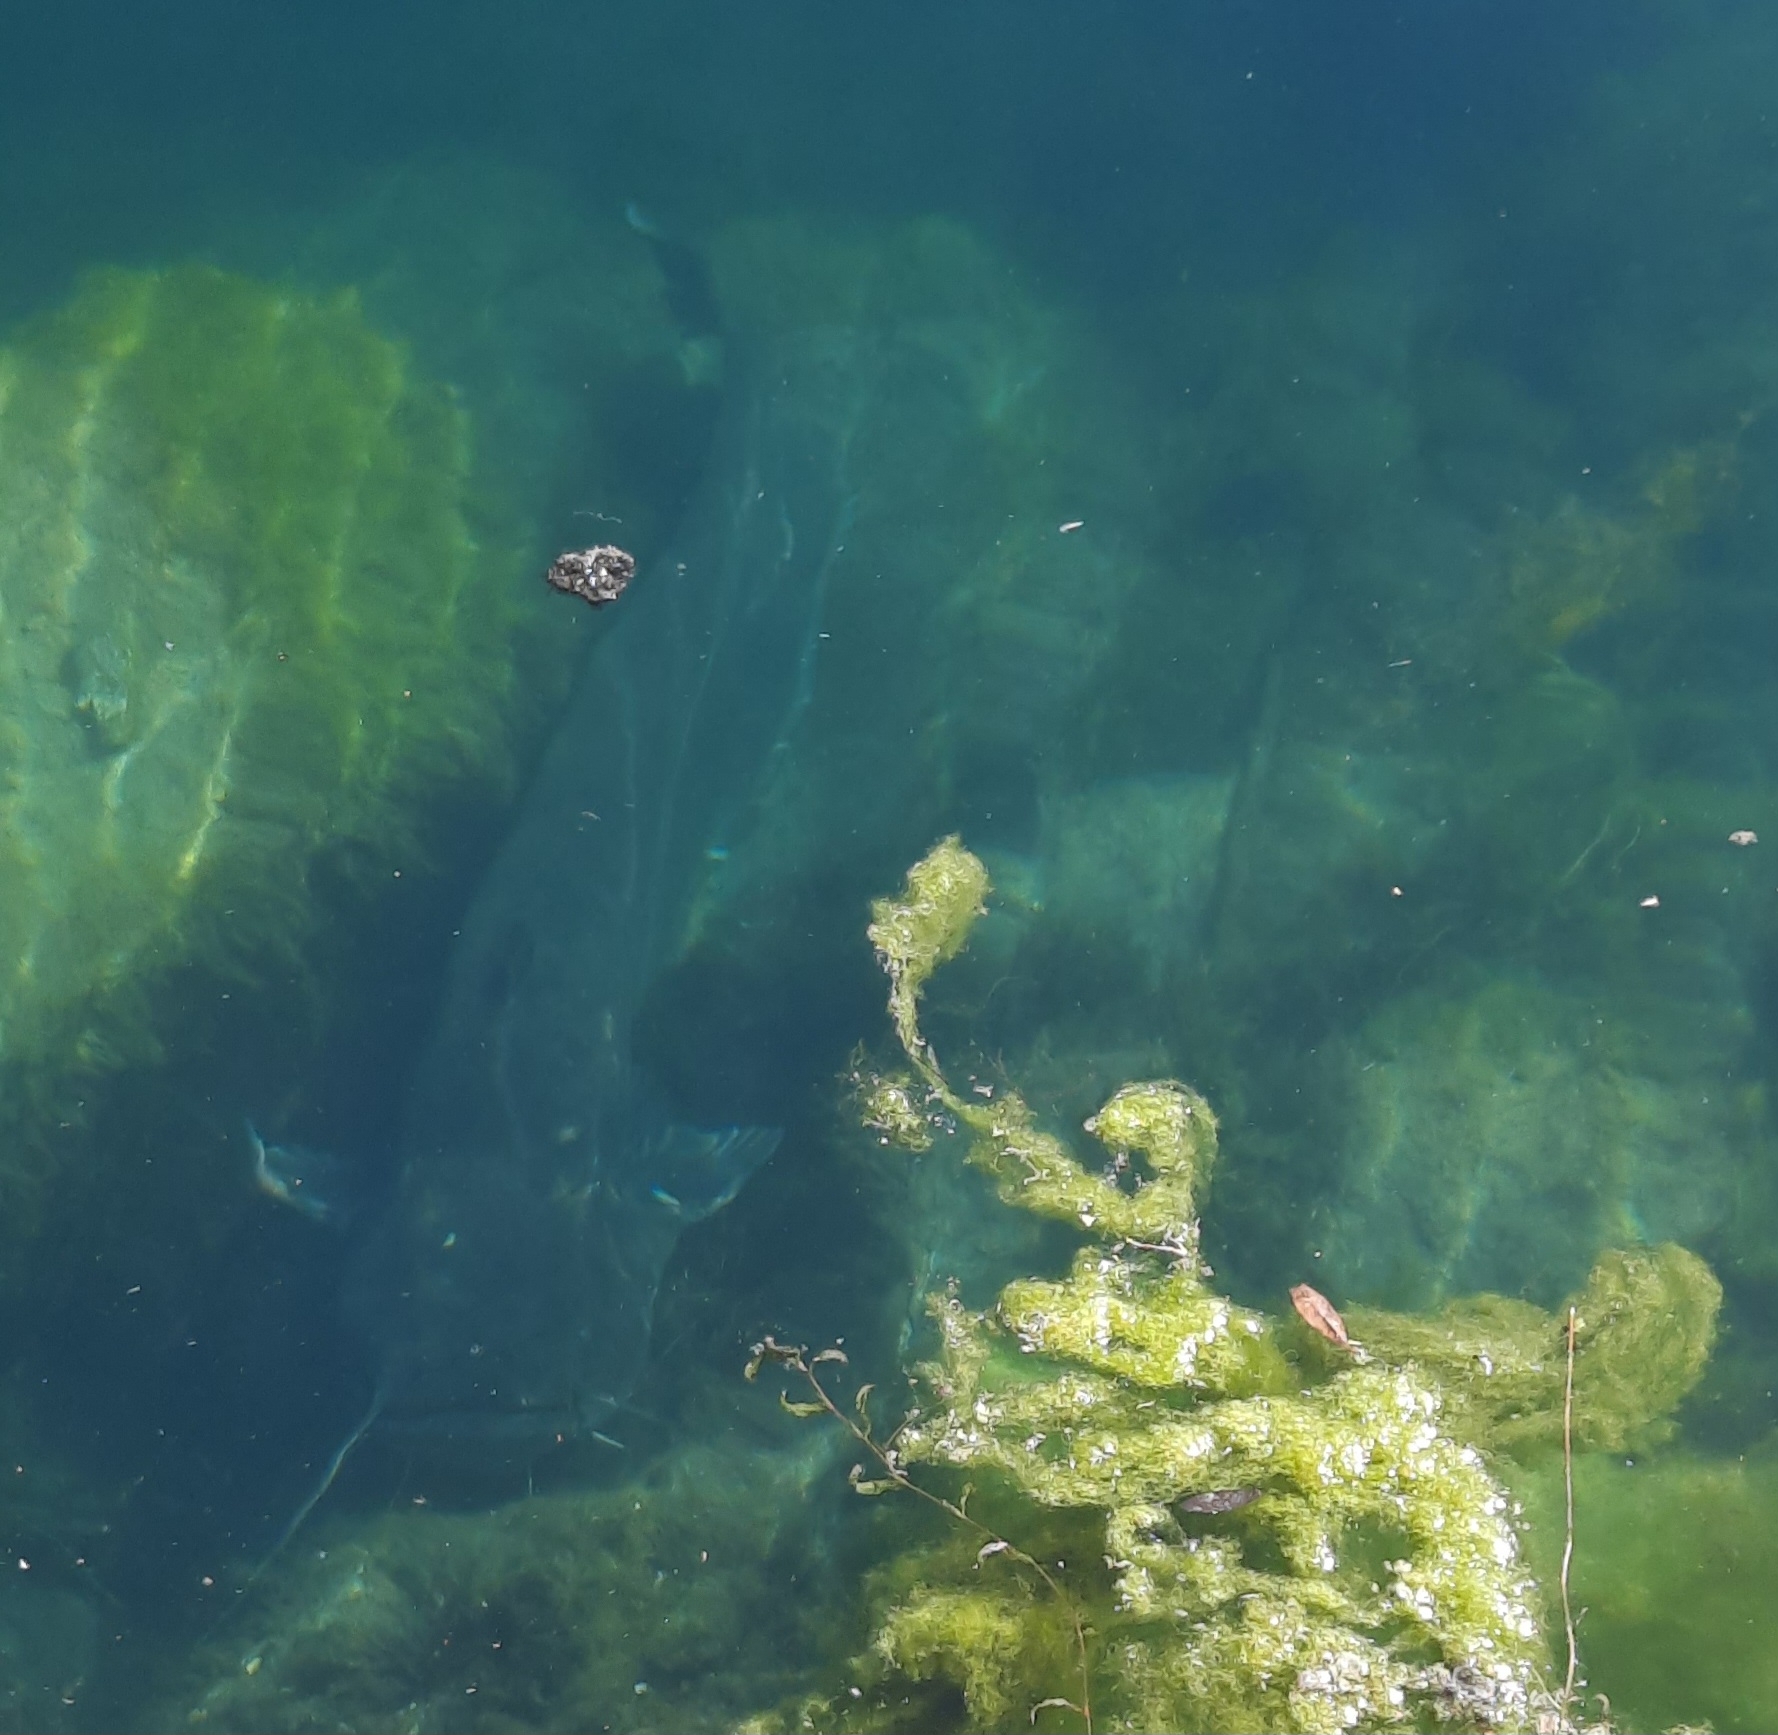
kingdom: Animalia
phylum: Chordata
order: Siluriformes
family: Siluridae
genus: Silurus
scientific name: Silurus glanis
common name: Wels
